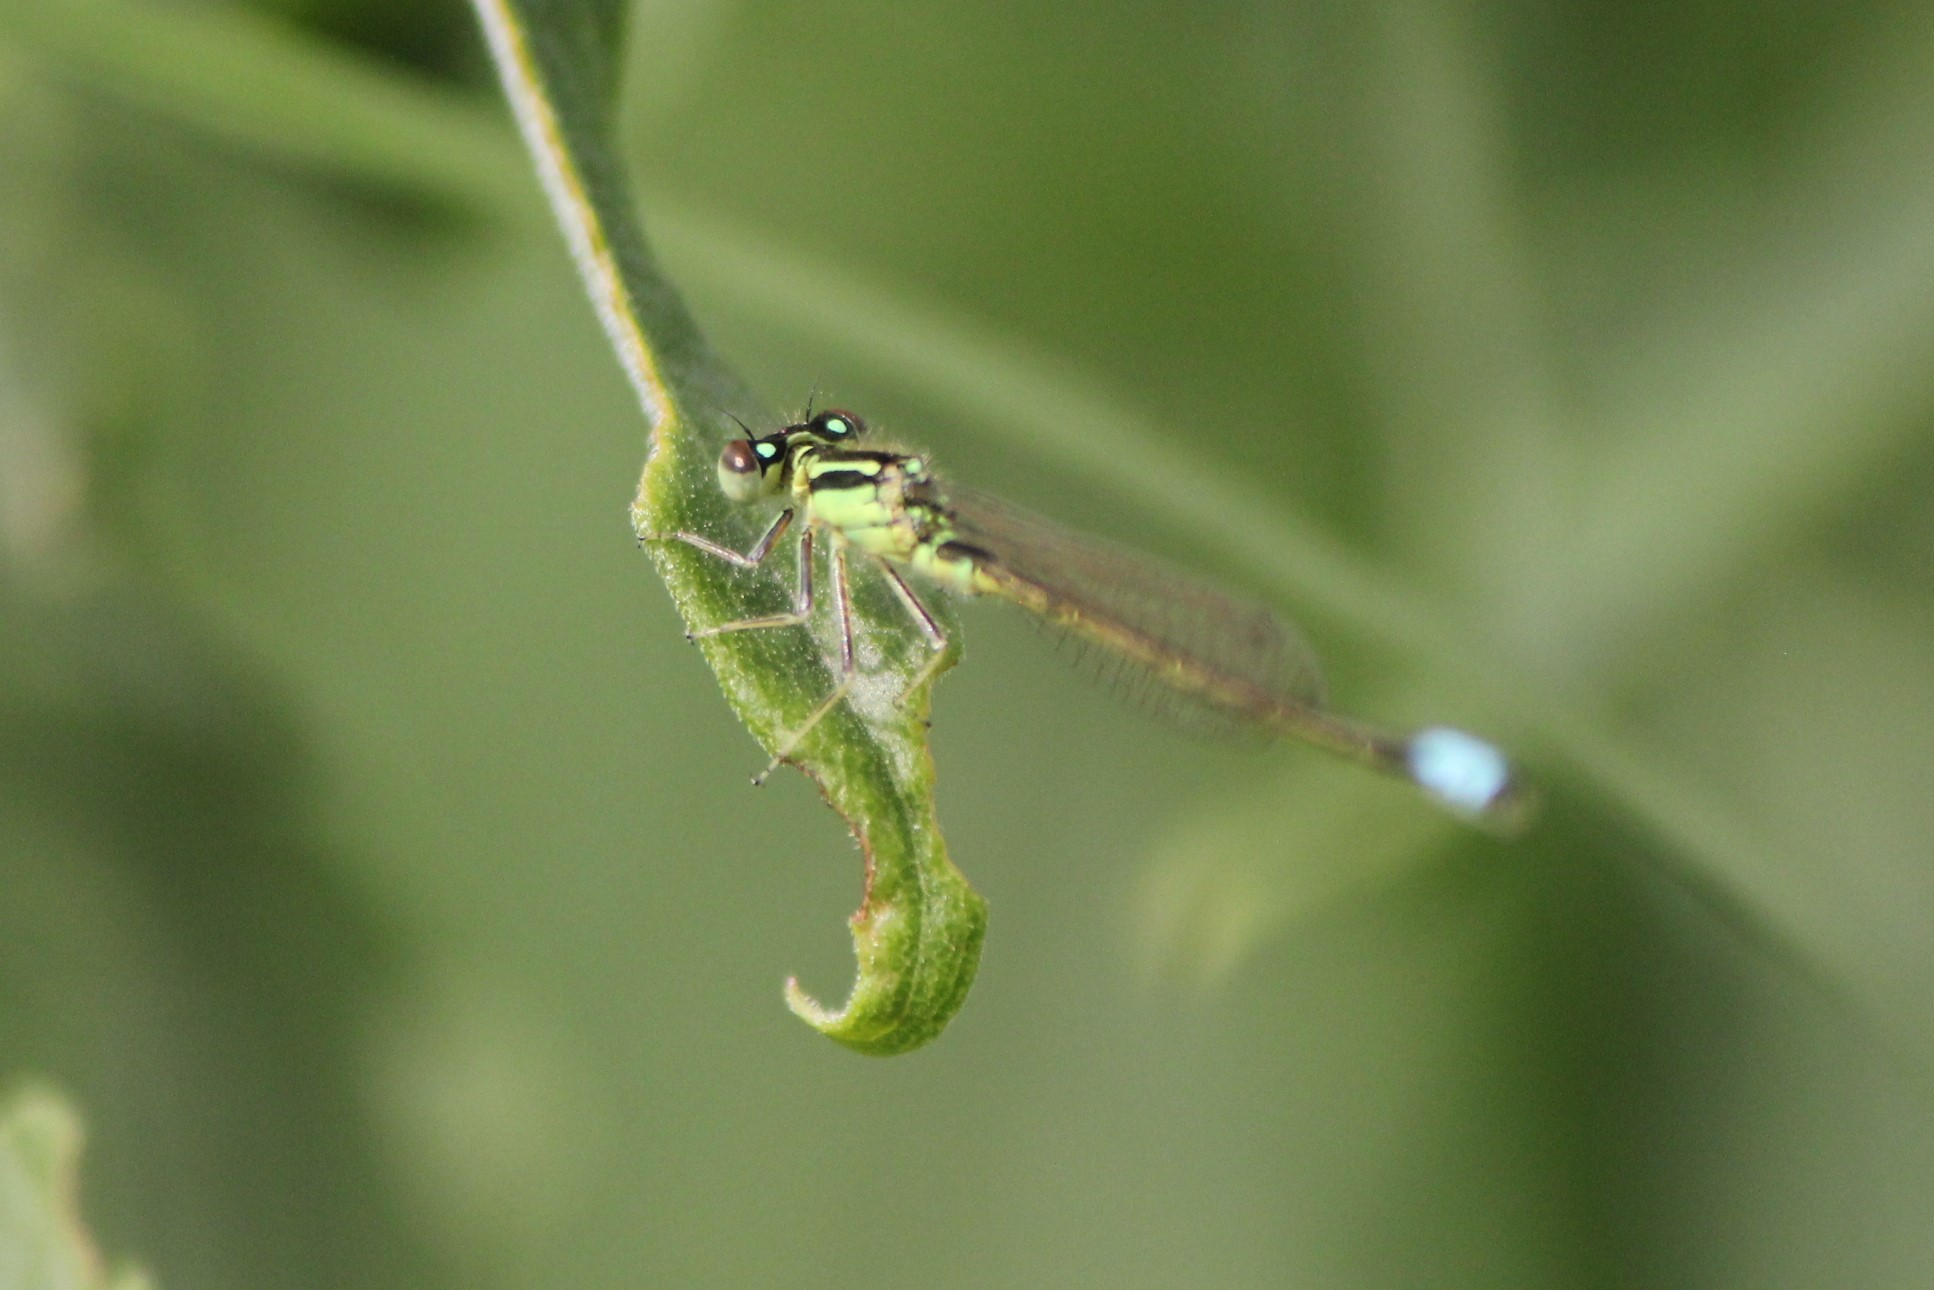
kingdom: Animalia
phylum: Arthropoda
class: Insecta
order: Odonata
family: Coenagrionidae
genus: Ischnura
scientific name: Ischnura verticalis
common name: Eastern forktail
